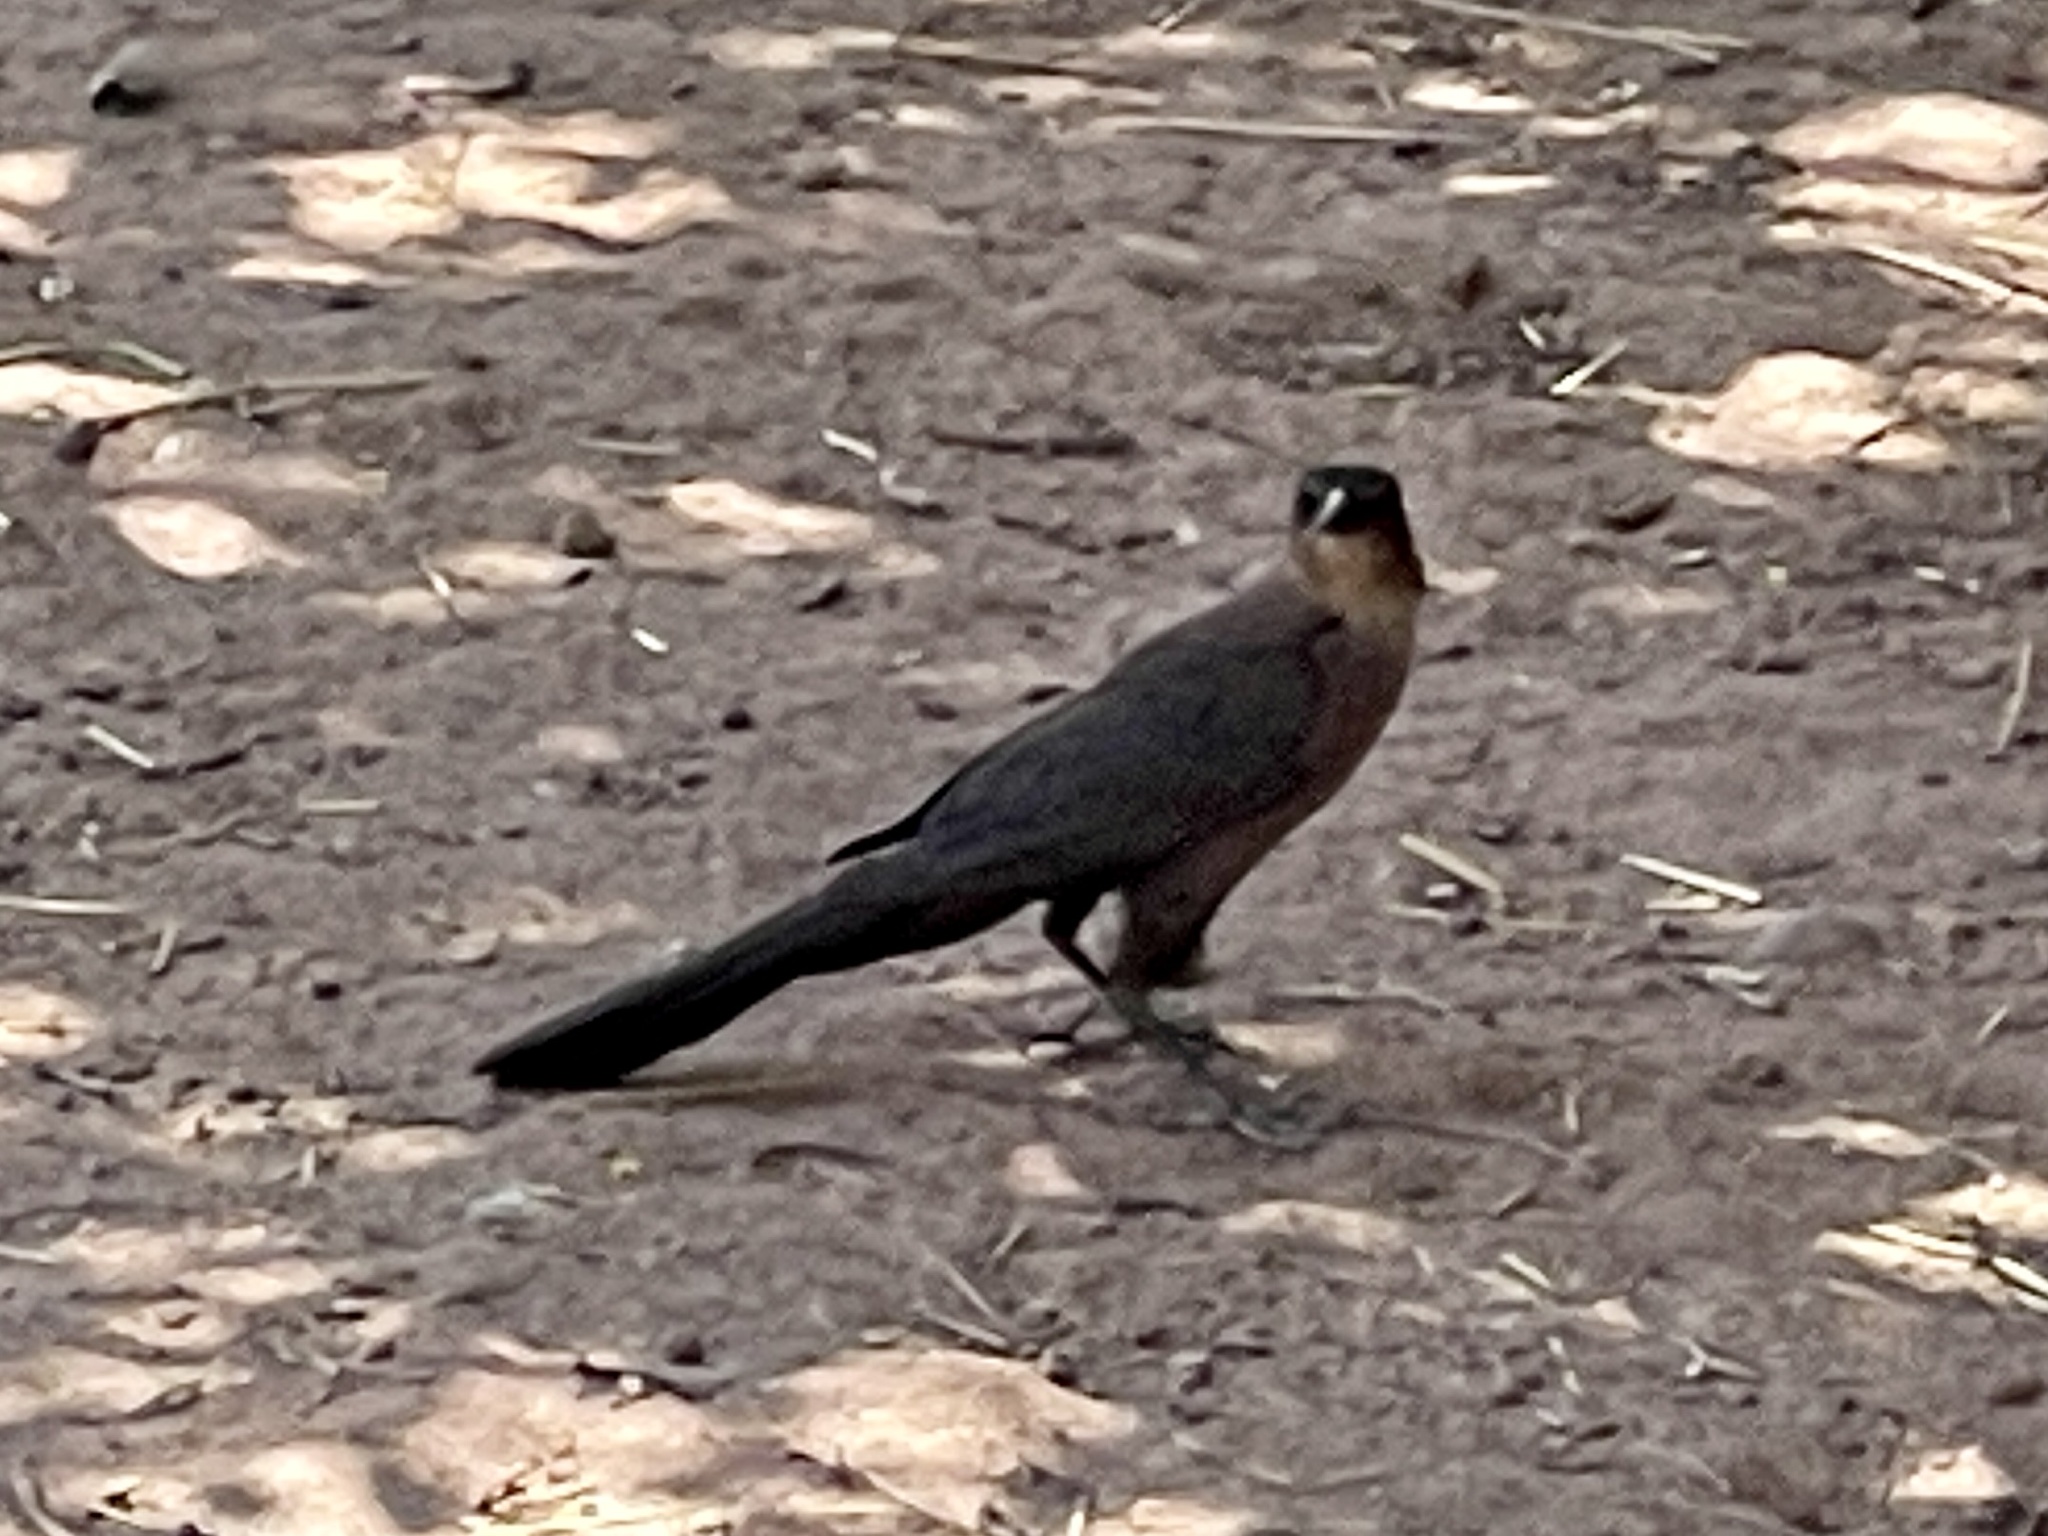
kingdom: Animalia
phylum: Chordata
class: Aves
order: Passeriformes
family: Icteridae
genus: Quiscalus
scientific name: Quiscalus mexicanus
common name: Great-tailed grackle
